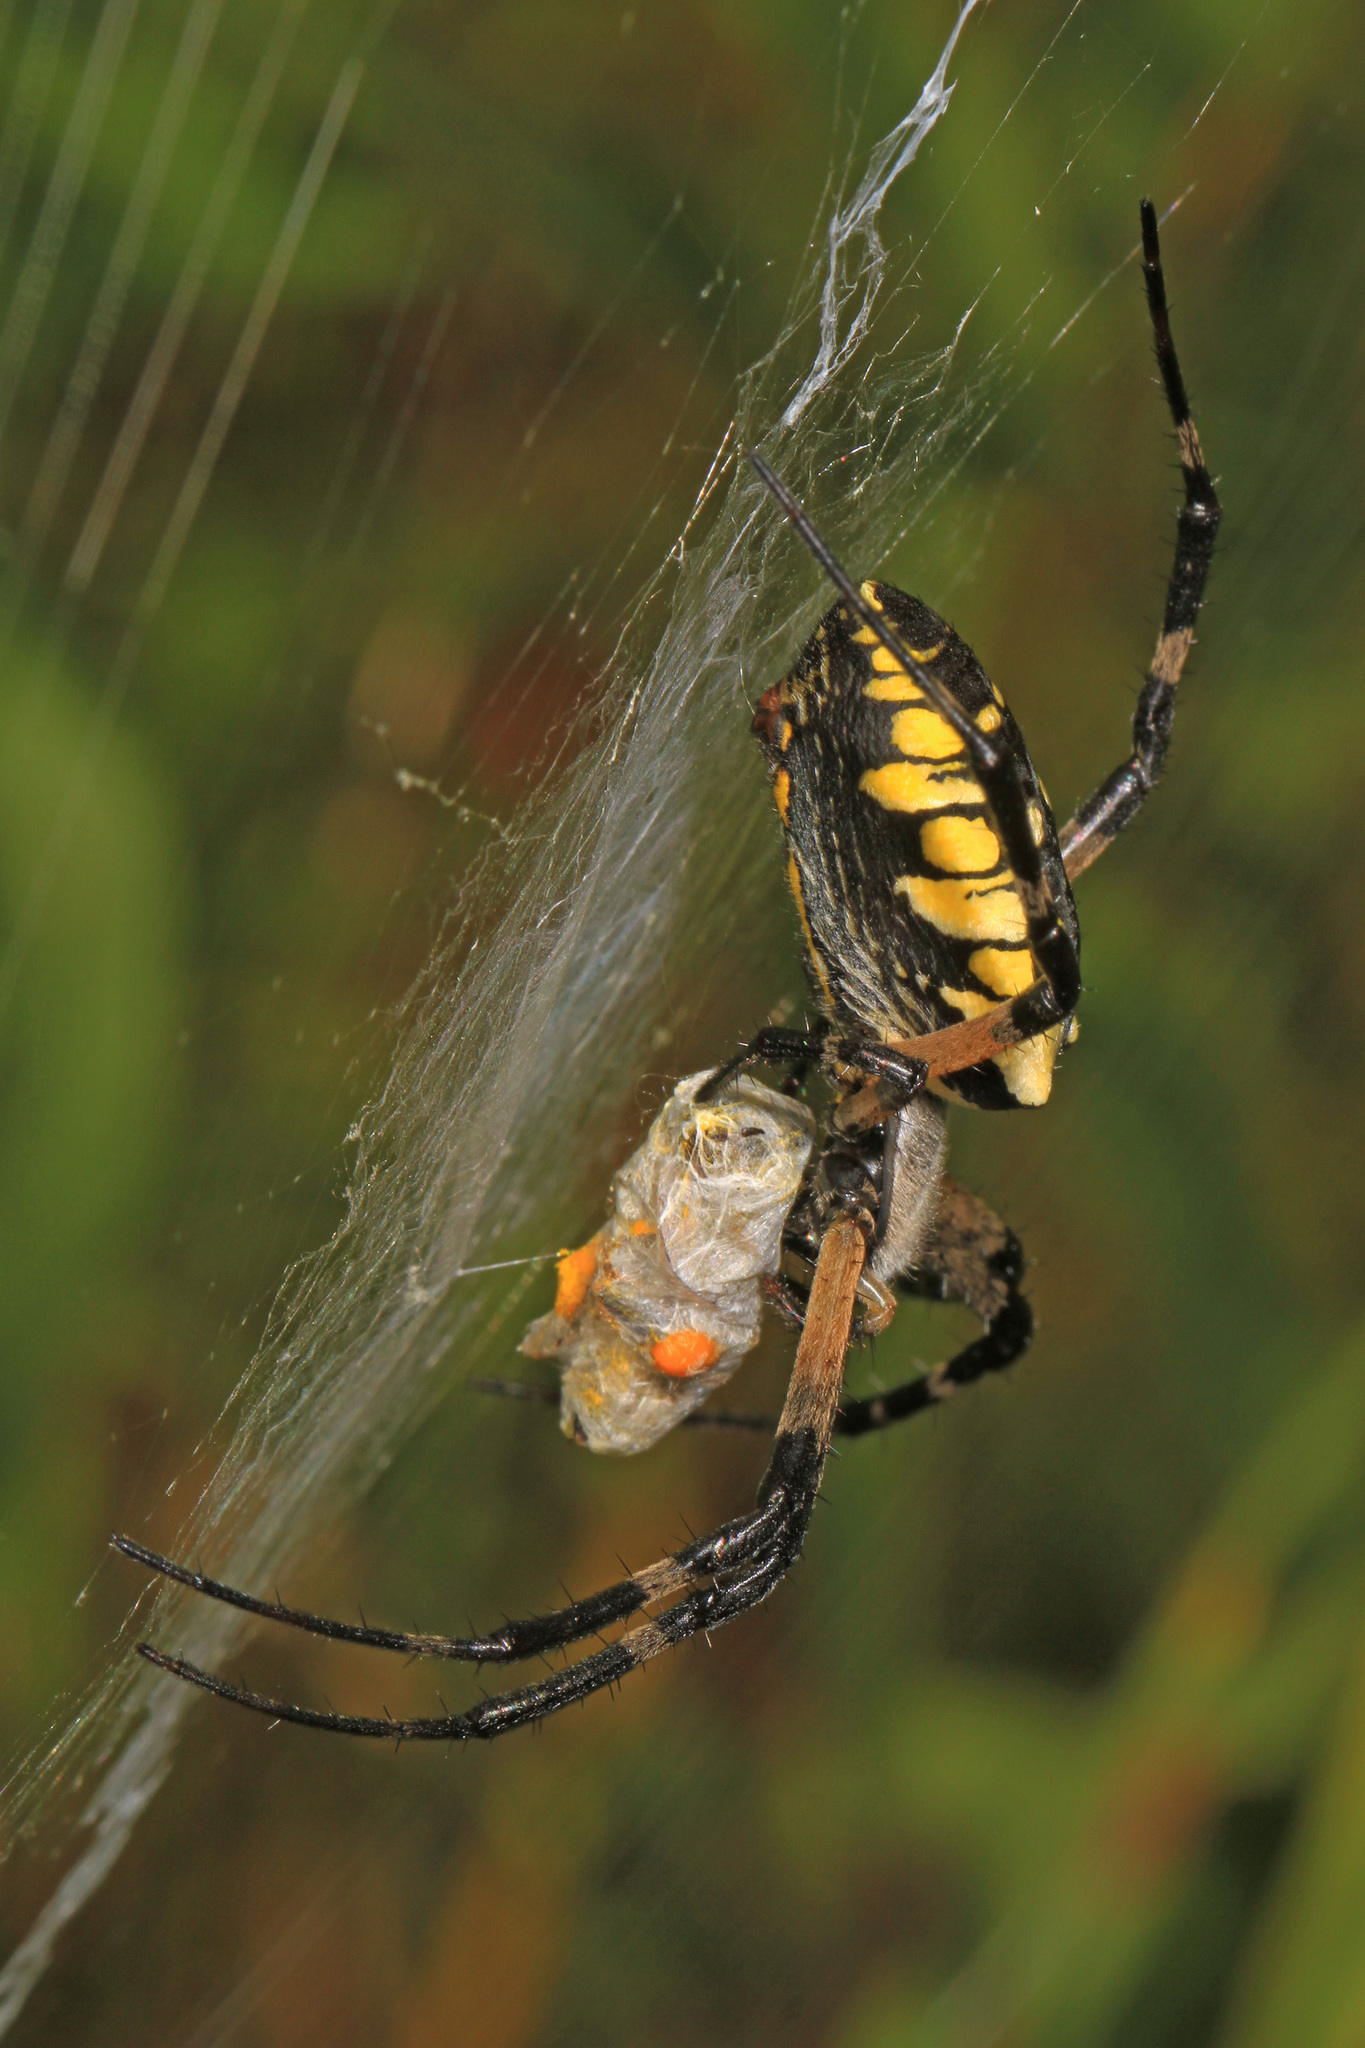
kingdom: Animalia
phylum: Arthropoda
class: Arachnida
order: Araneae
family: Araneidae
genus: Argiope
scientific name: Argiope aurantia
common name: Orb weavers
